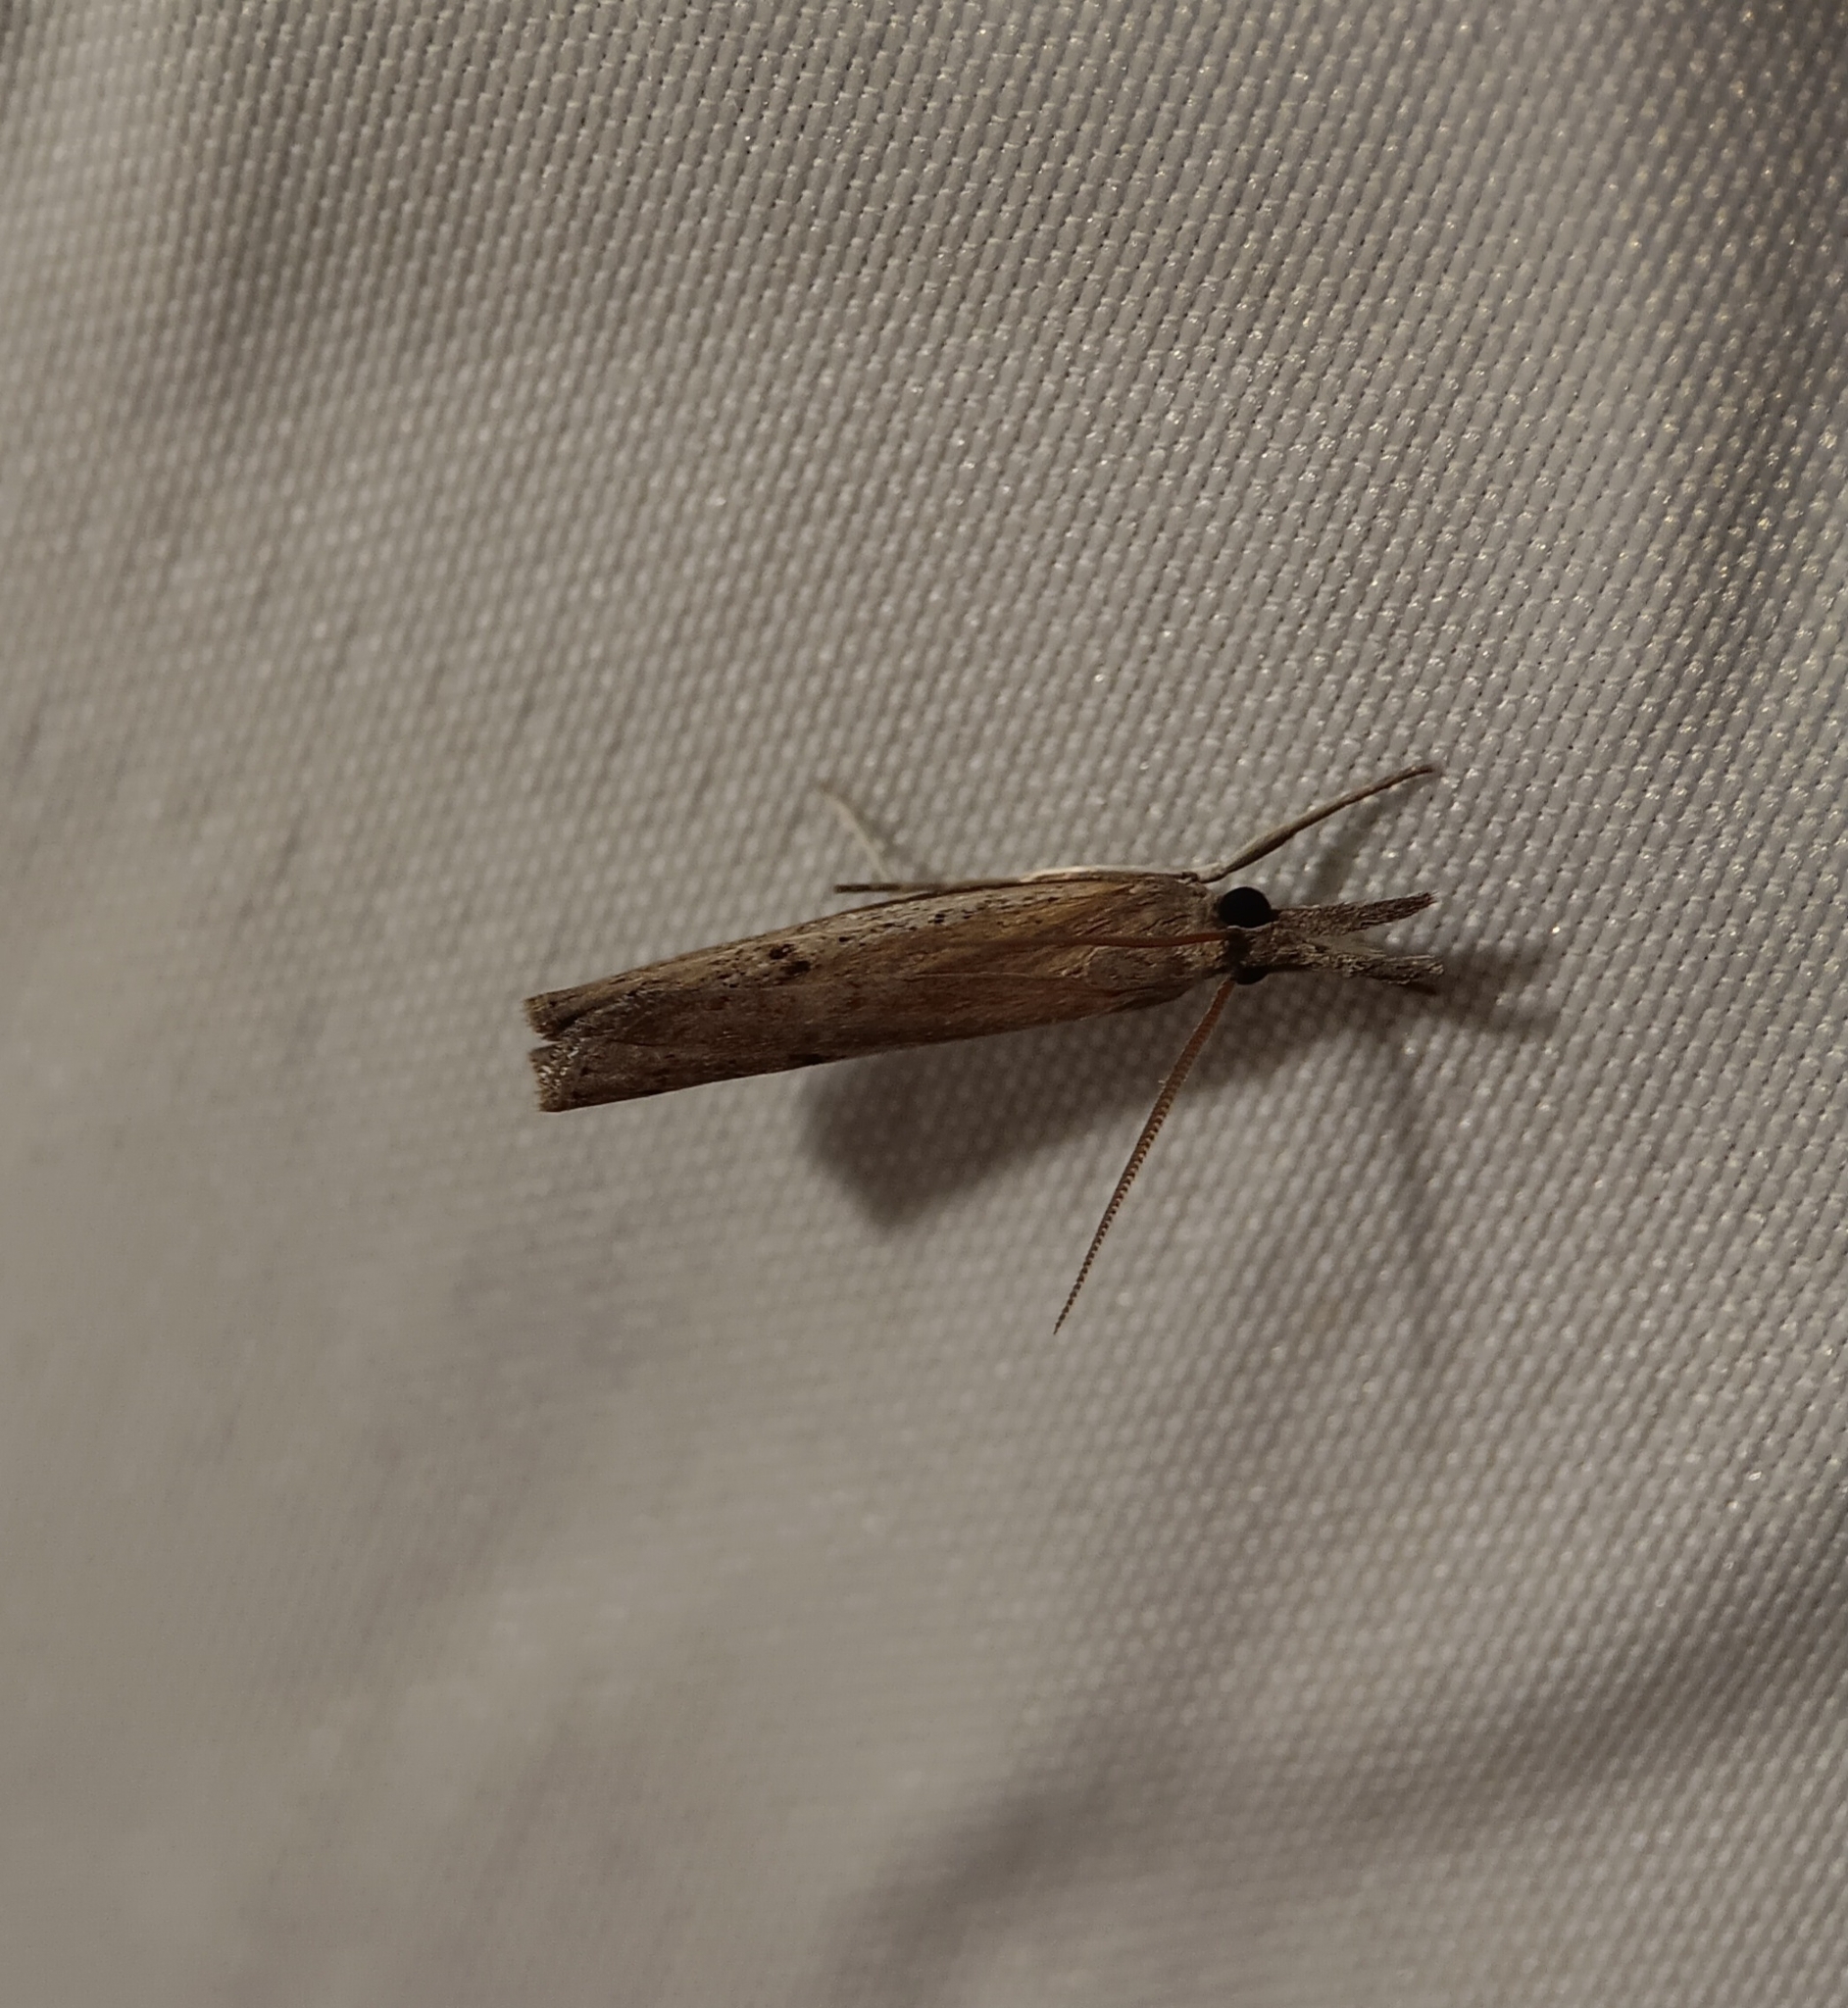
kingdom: Animalia
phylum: Arthropoda
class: Insecta
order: Lepidoptera
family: Crambidae
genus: Fissicrambus
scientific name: Fissicrambus mutabilis
